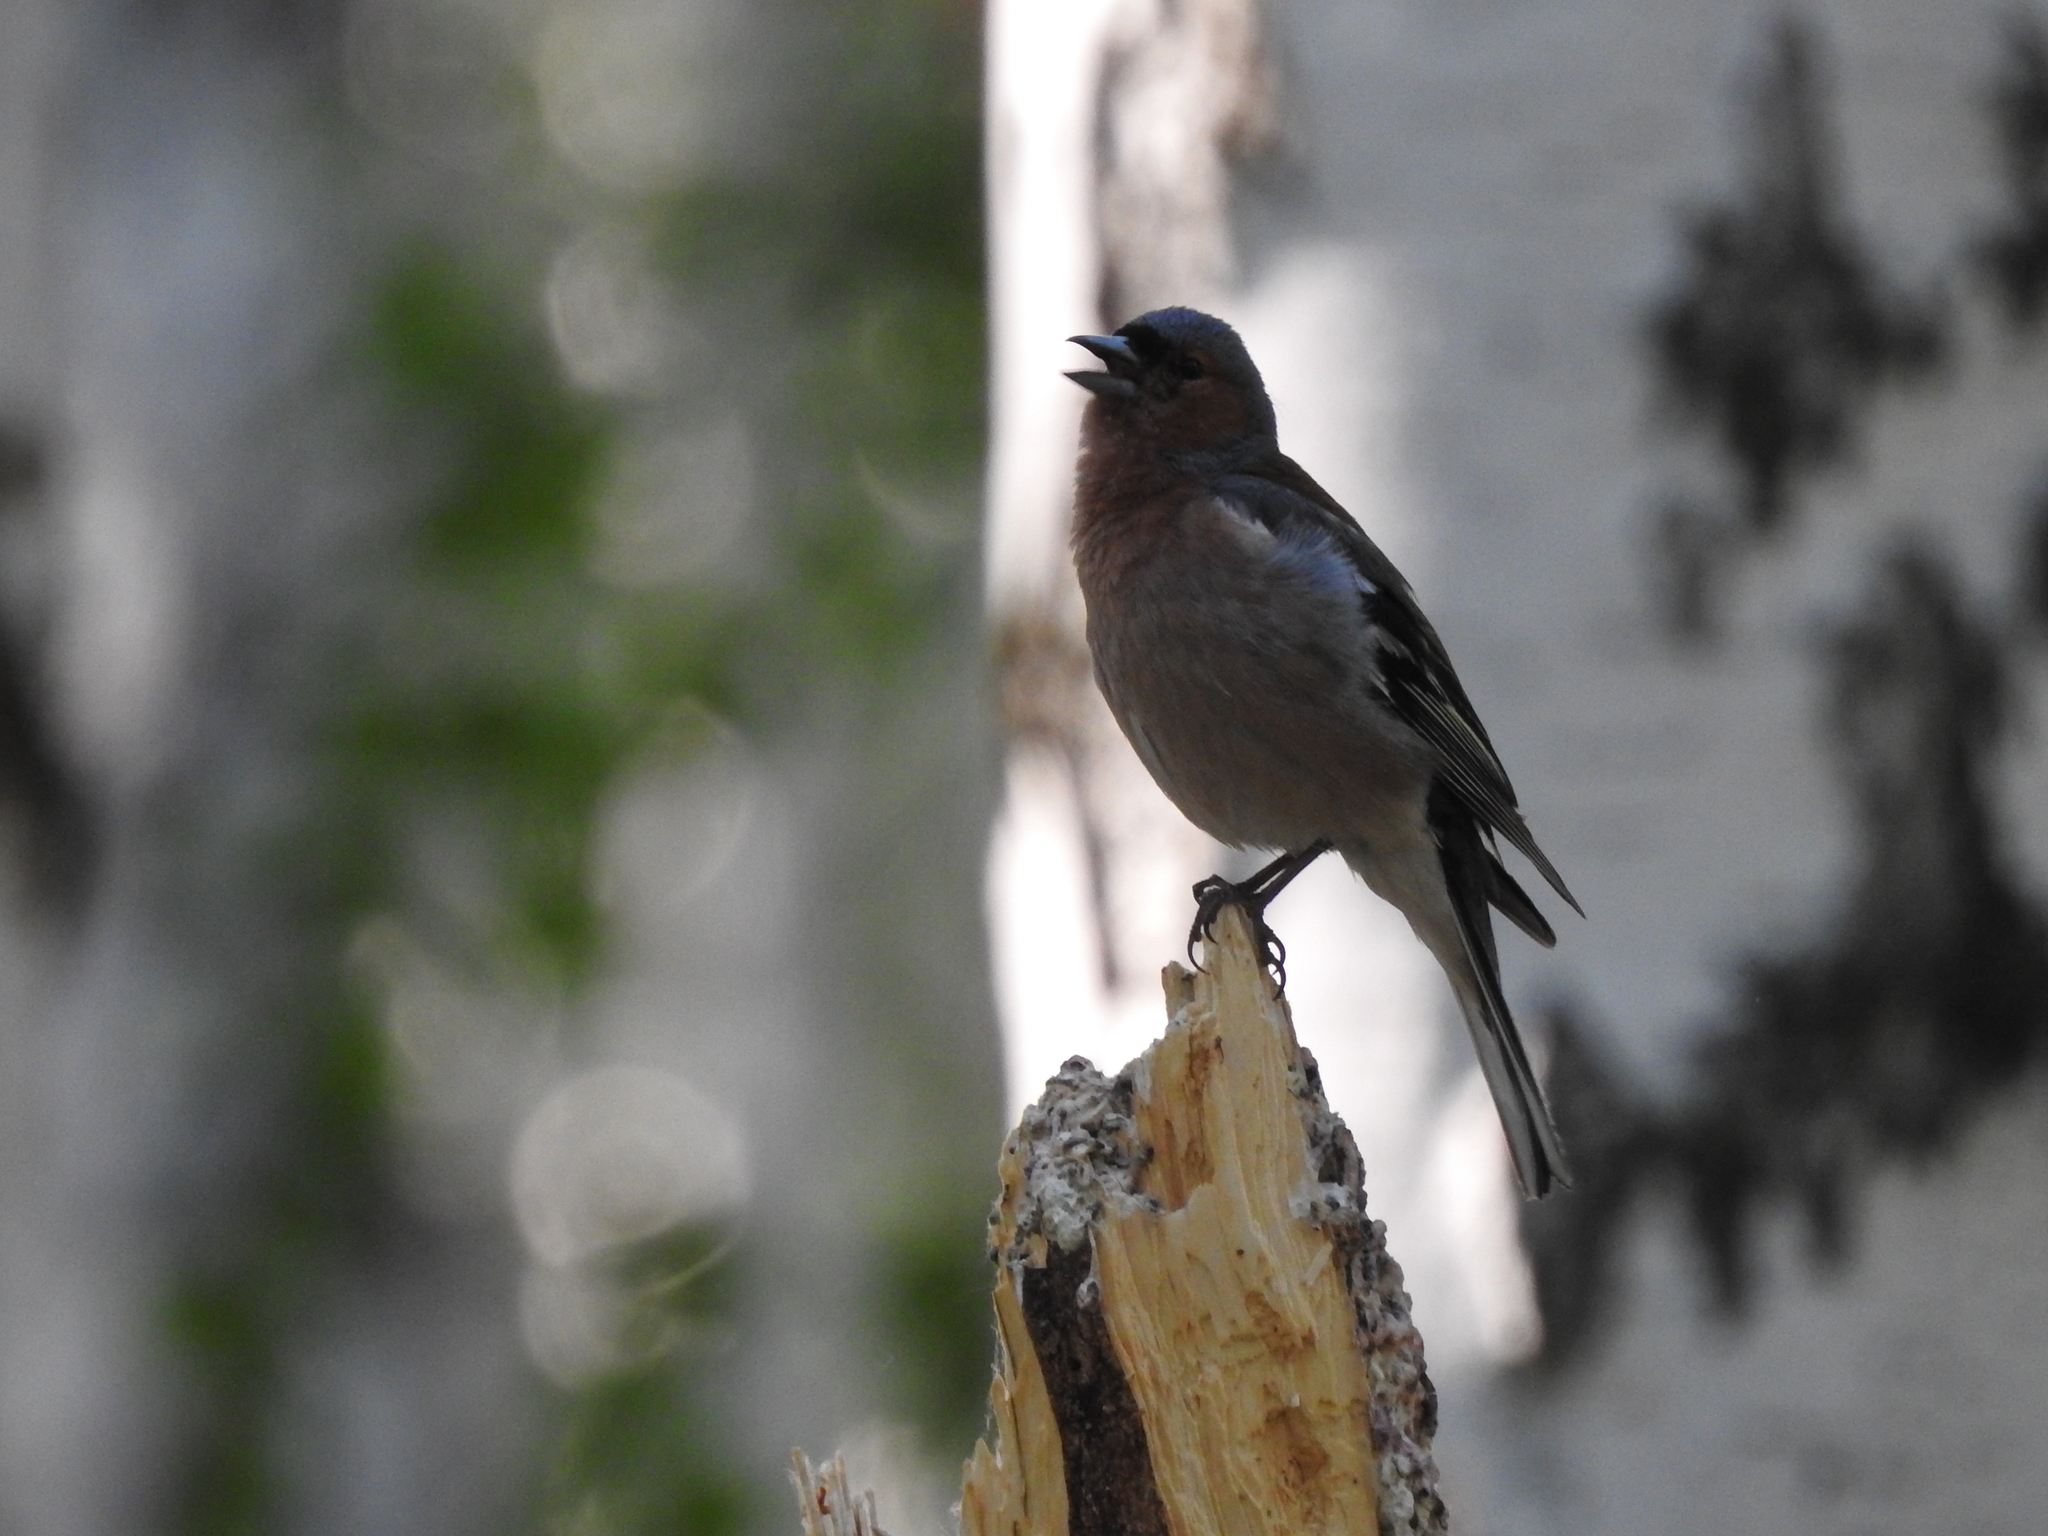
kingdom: Animalia
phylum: Chordata
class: Aves
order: Passeriformes
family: Fringillidae
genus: Fringilla
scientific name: Fringilla coelebs
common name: Common chaffinch
